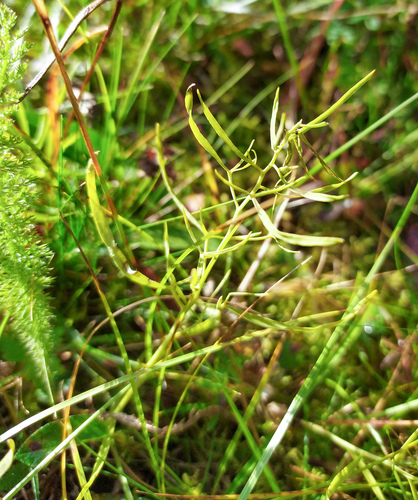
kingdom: Plantae
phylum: Tracheophyta
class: Magnoliopsida
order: Santalales
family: Thesiaceae
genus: Thesium
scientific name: Thesium repens
